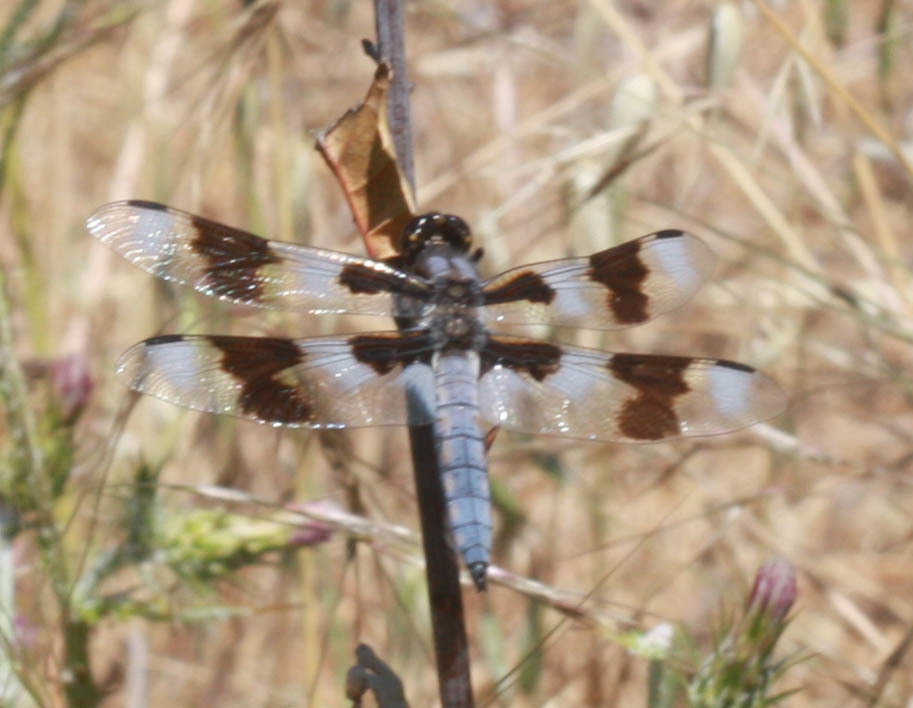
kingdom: Animalia
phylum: Arthropoda
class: Insecta
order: Odonata
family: Libellulidae
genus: Libellula
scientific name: Libellula forensis
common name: Eight-spotted skimmer
